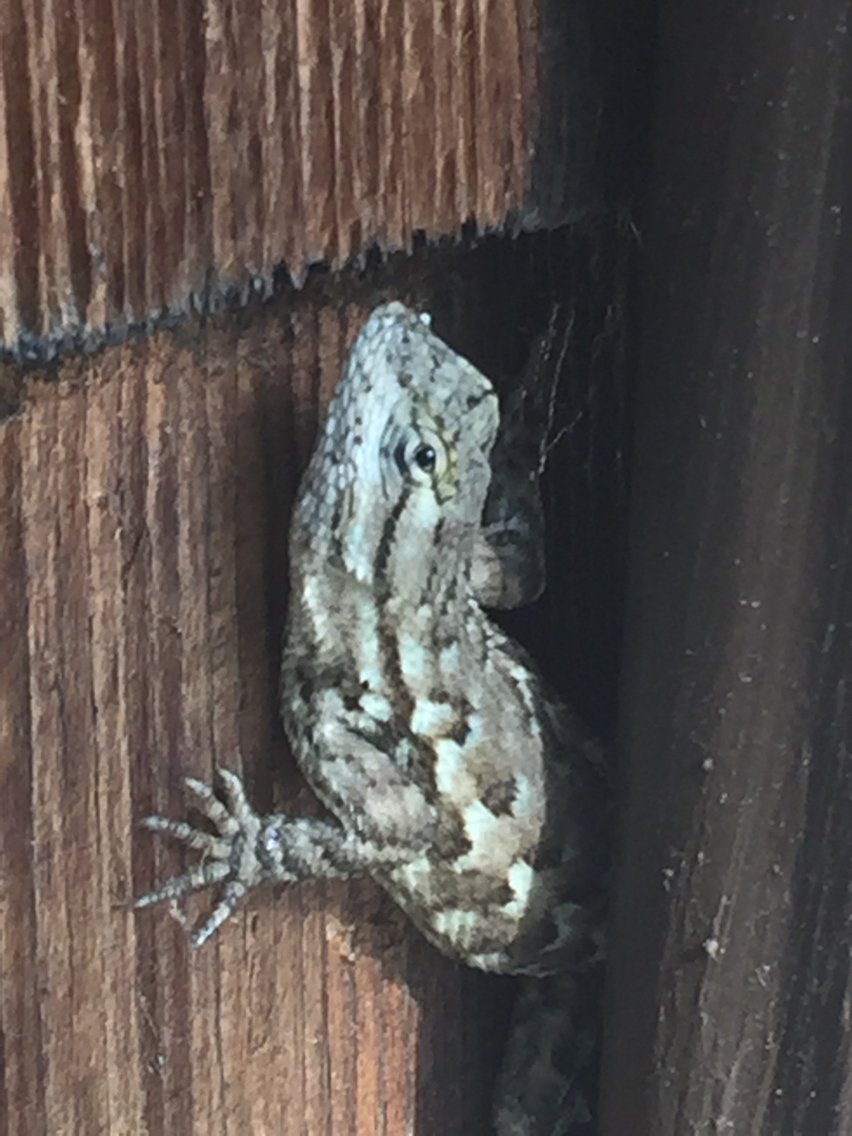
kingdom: Animalia
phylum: Chordata
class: Squamata
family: Phrynosomatidae
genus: Sceloporus
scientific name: Sceloporus occidentalis
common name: Western fence lizard
